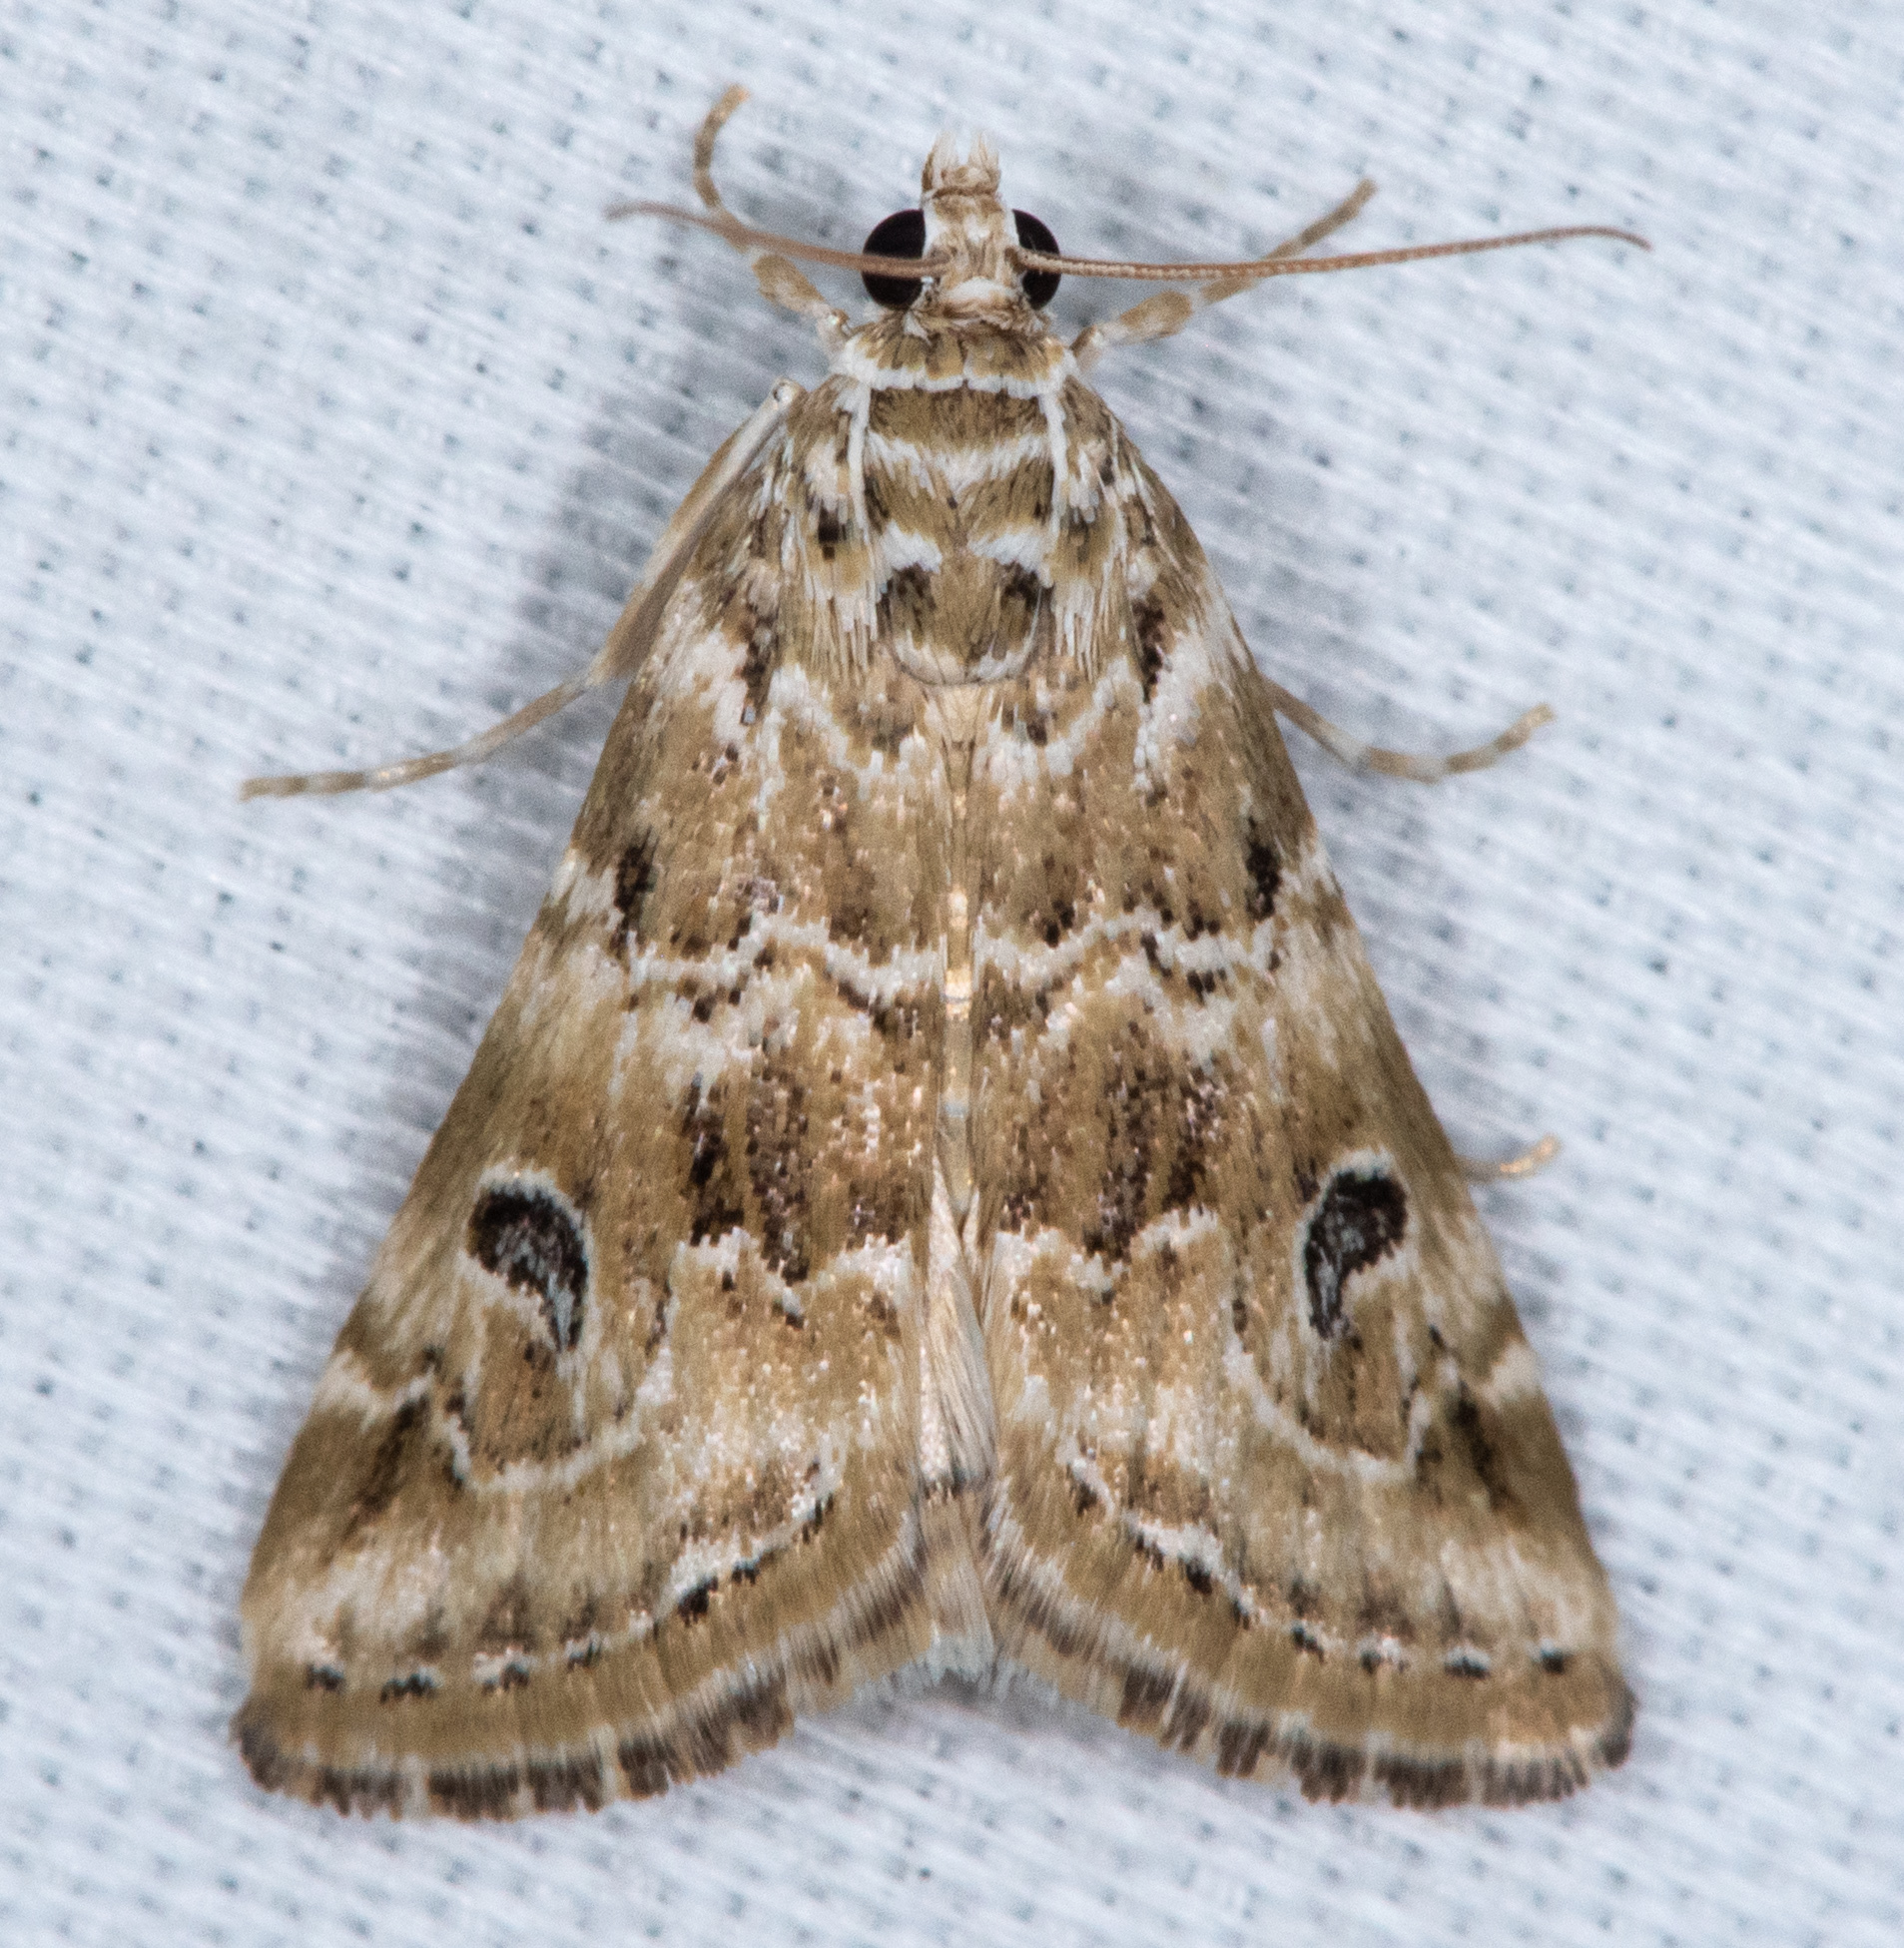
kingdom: Animalia
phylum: Arthropoda
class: Insecta
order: Lepidoptera
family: Crambidae
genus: Hellula
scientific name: Hellula rogatalis
